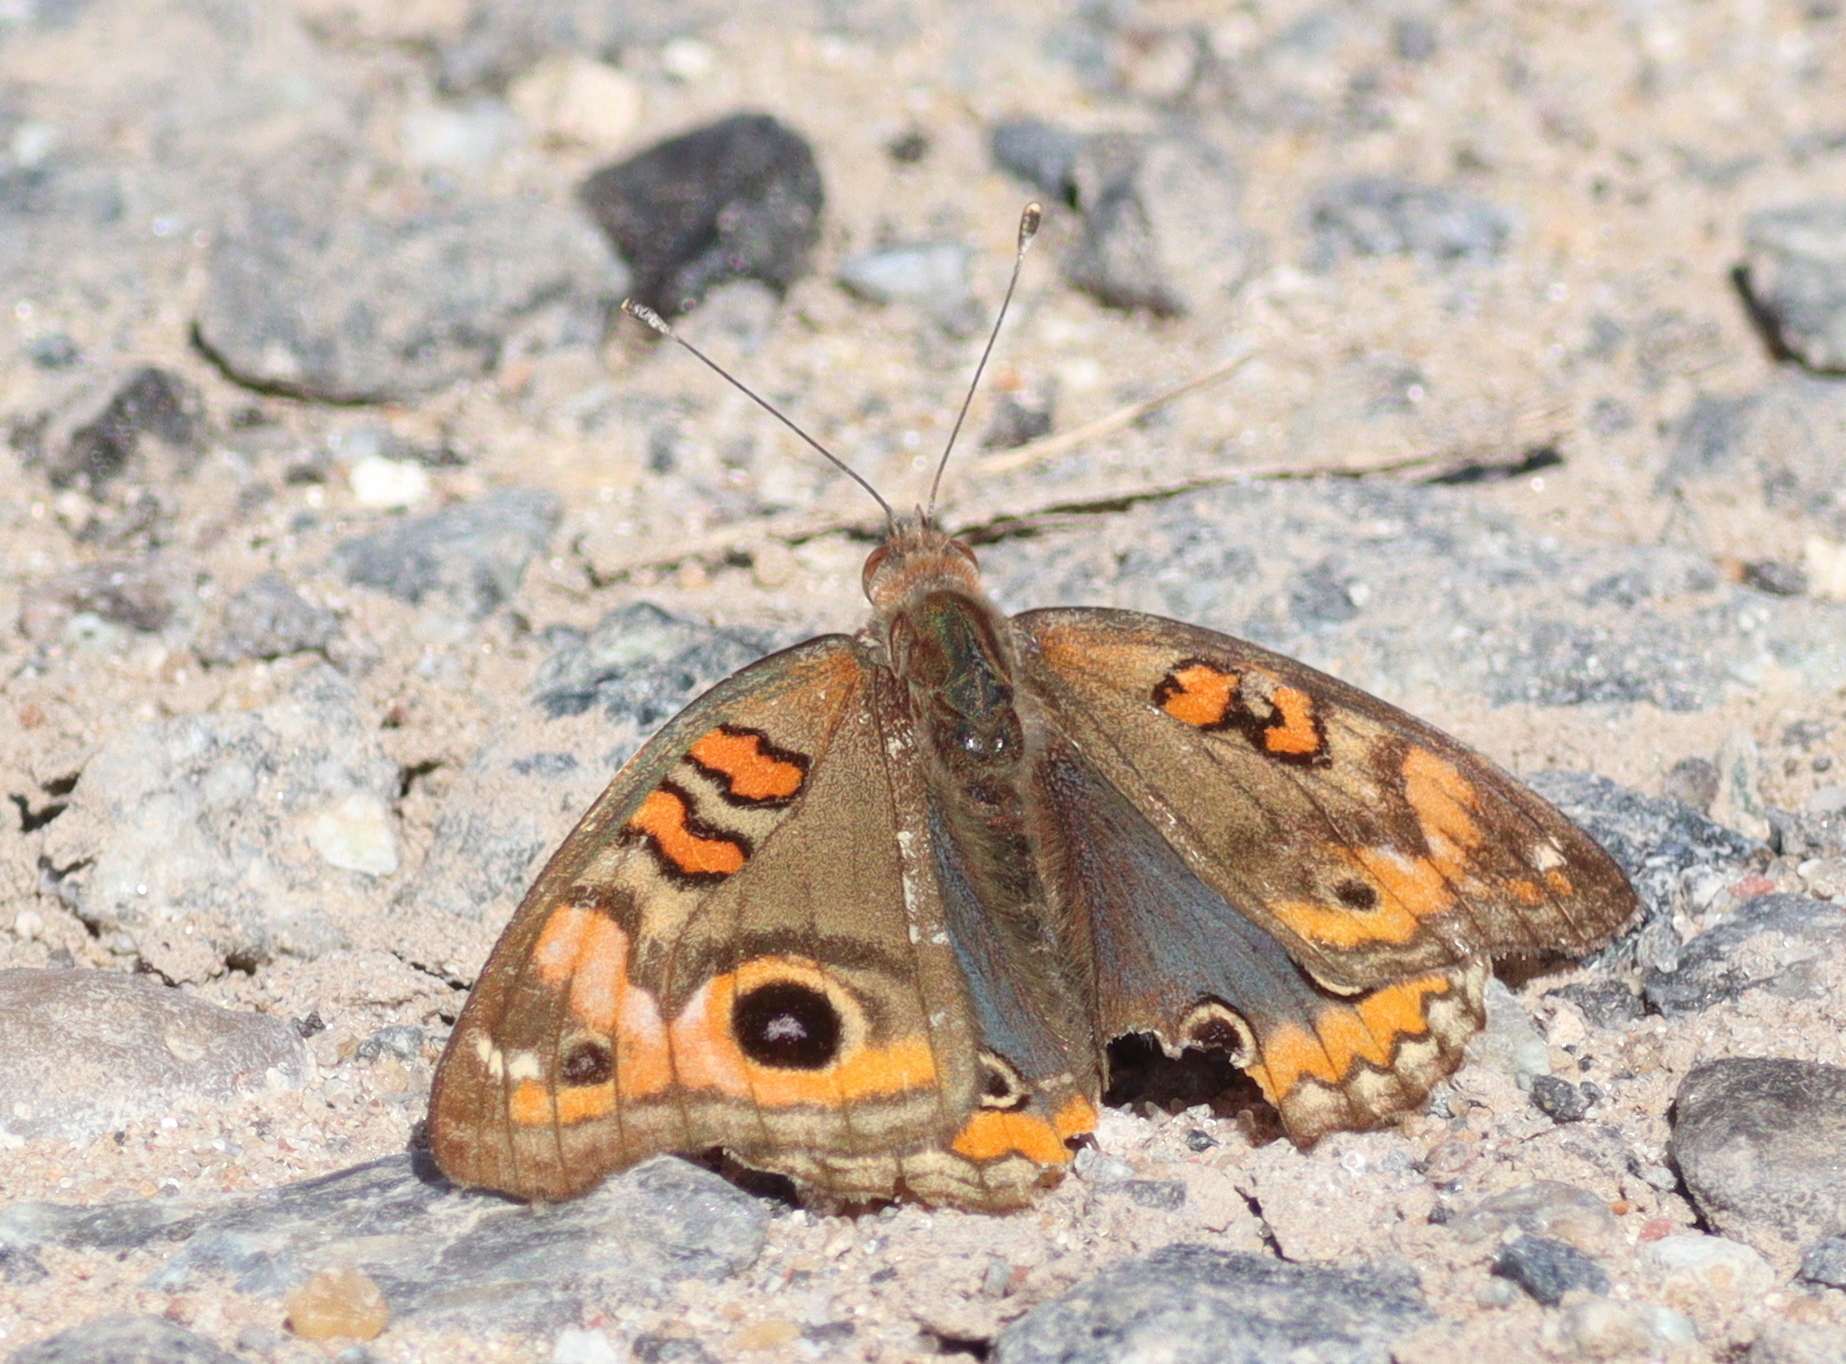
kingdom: Animalia
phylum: Arthropoda
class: Insecta
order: Lepidoptera
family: Nymphalidae
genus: Junonia
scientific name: Junonia lavinia
